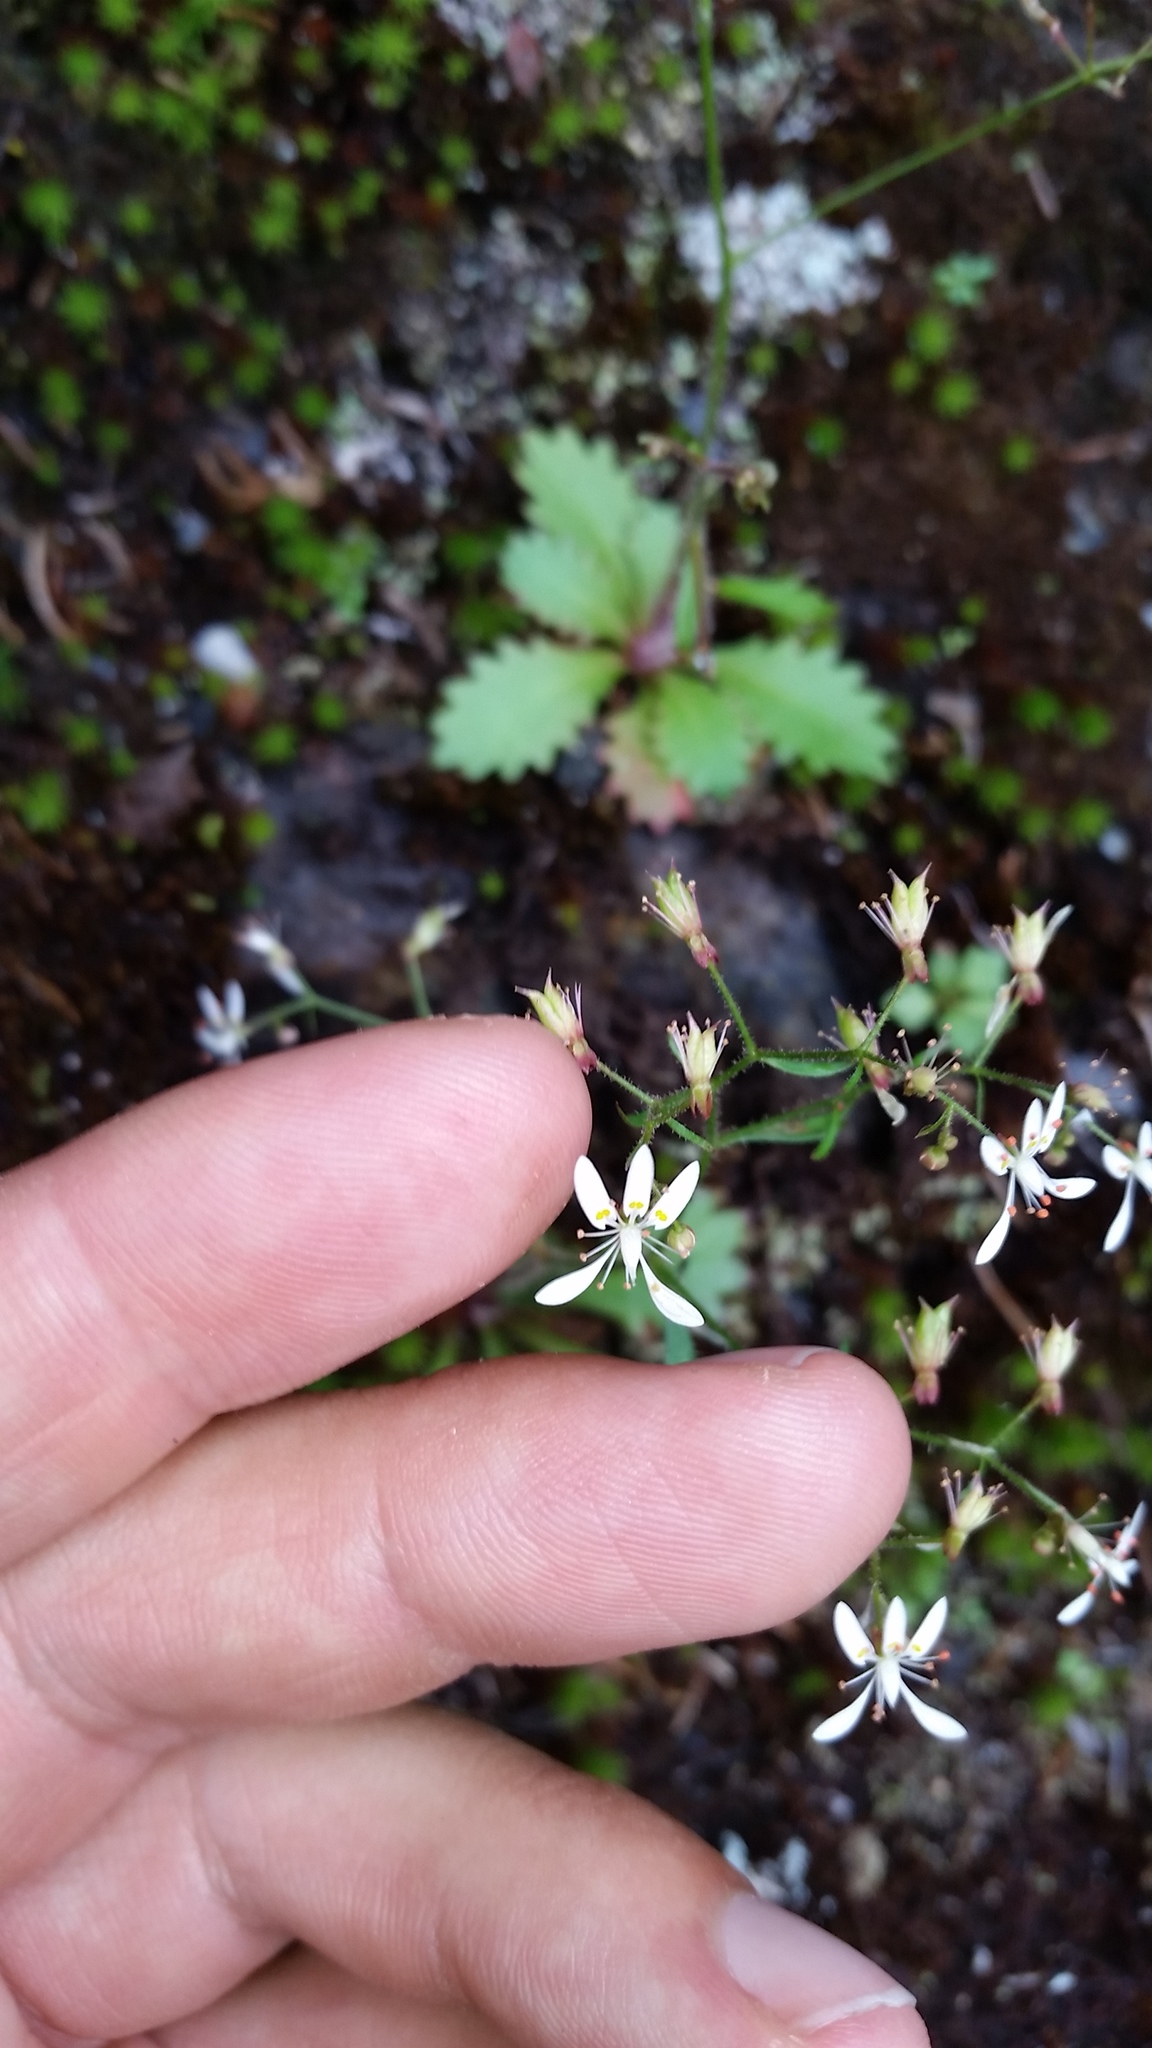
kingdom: Plantae
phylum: Tracheophyta
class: Magnoliopsida
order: Saxifragales
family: Saxifragaceae
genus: Micranthes
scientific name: Micranthes petiolaris
